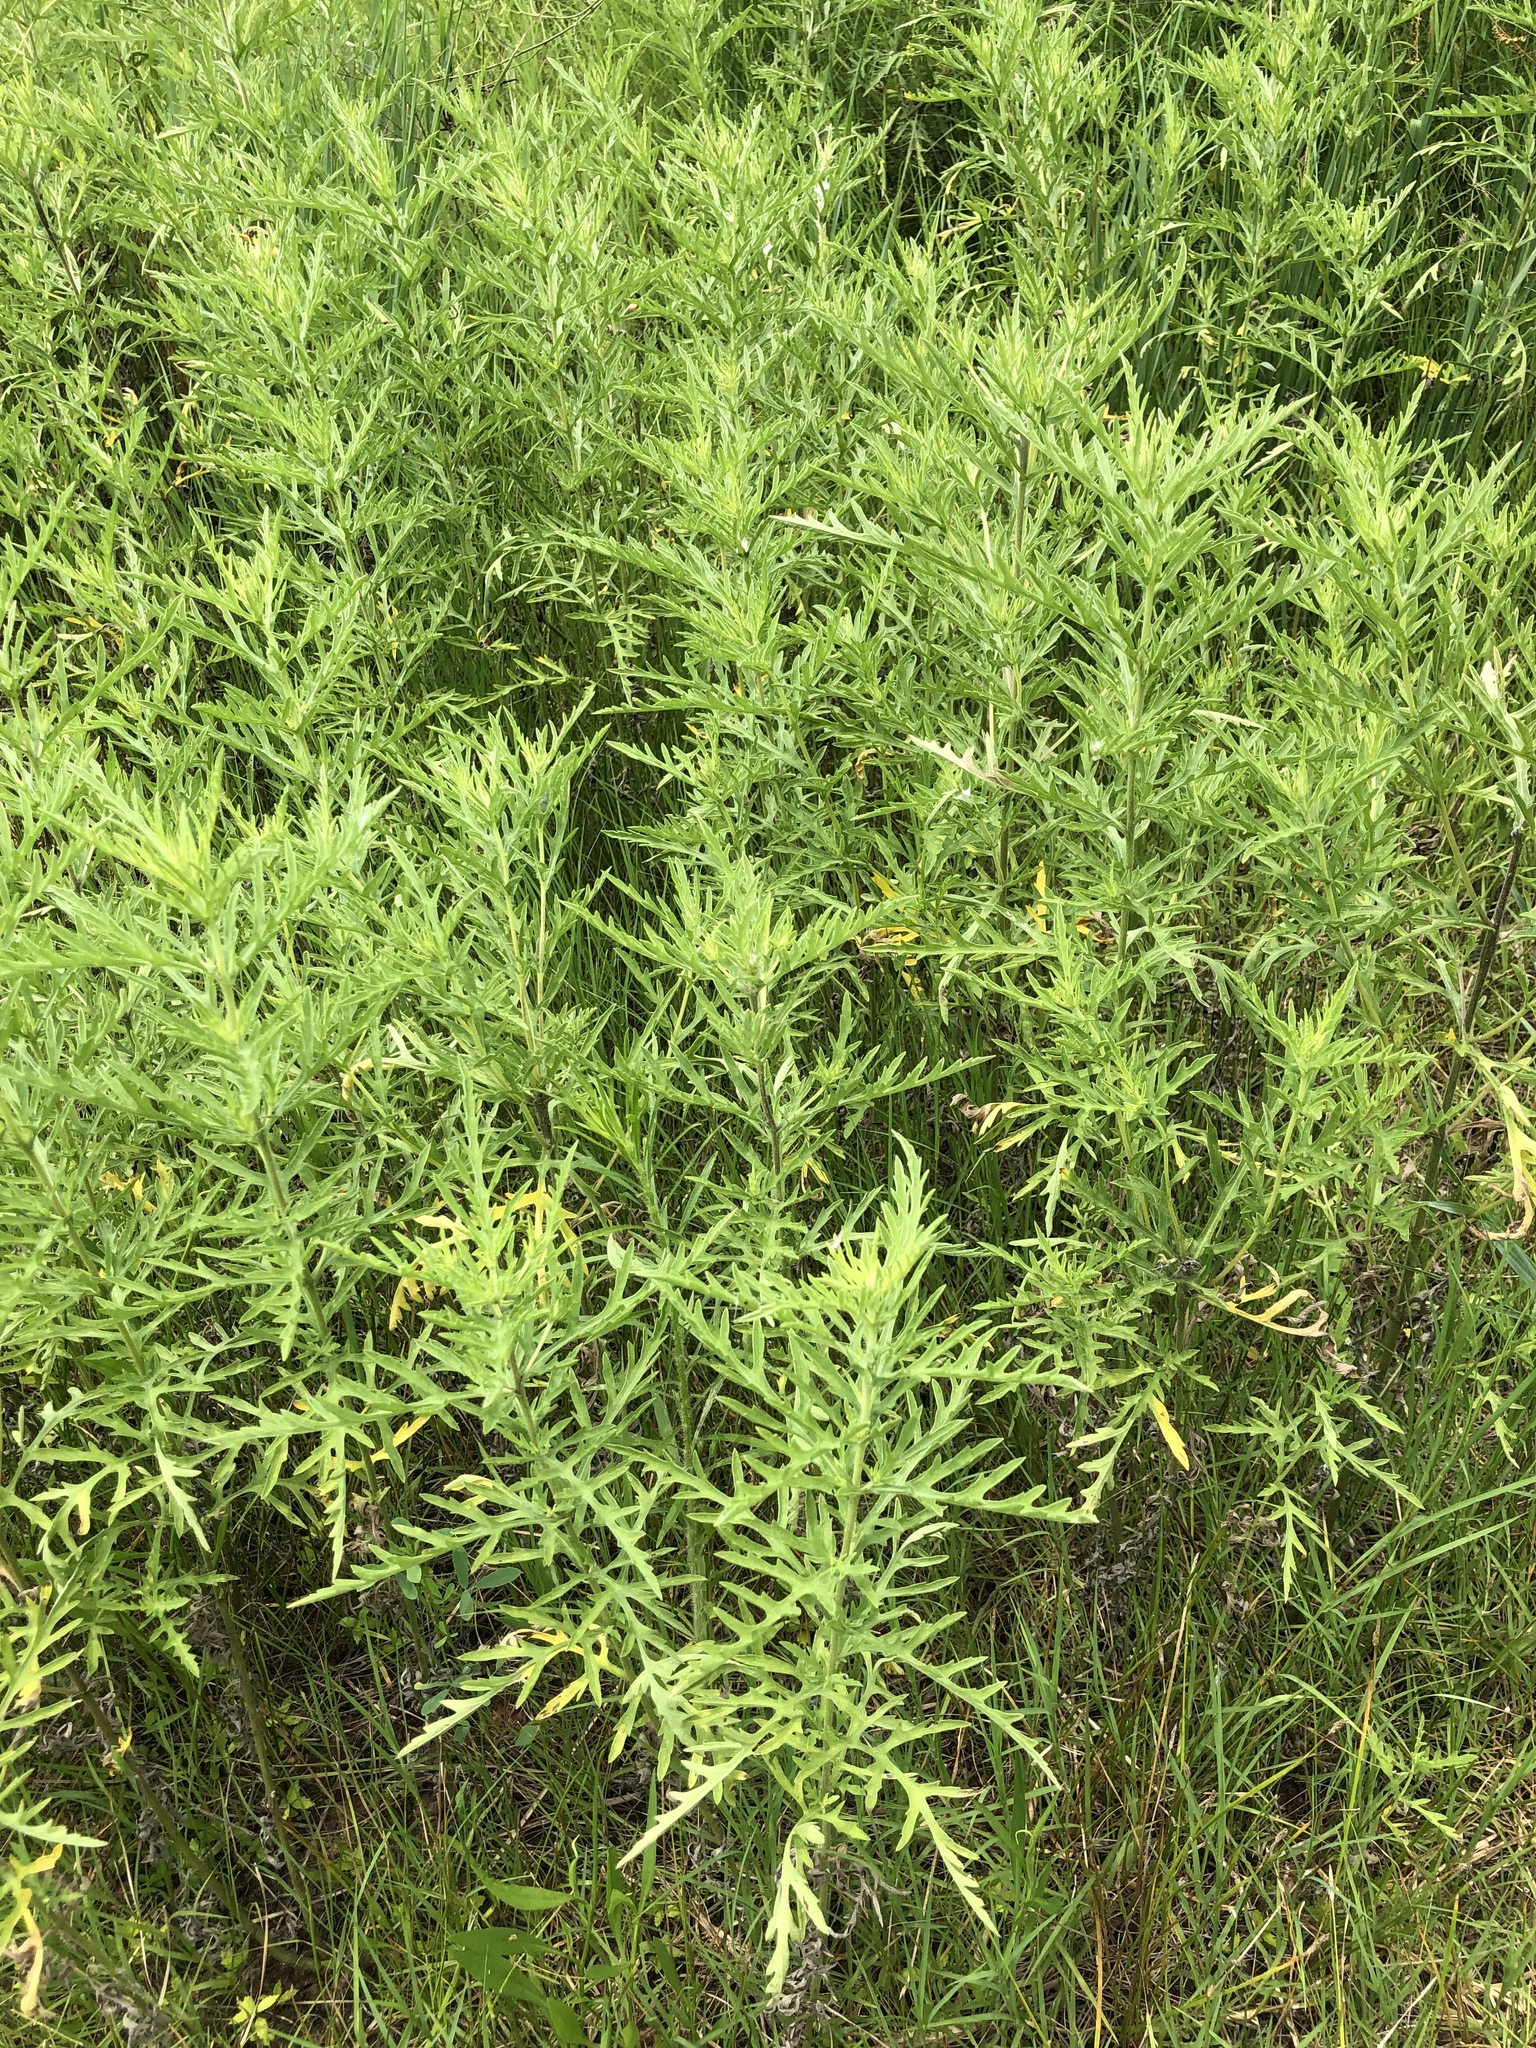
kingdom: Plantae
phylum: Tracheophyta
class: Magnoliopsida
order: Asterales
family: Asteraceae
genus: Ambrosia
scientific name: Ambrosia psilostachya
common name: Perennial ragweed
